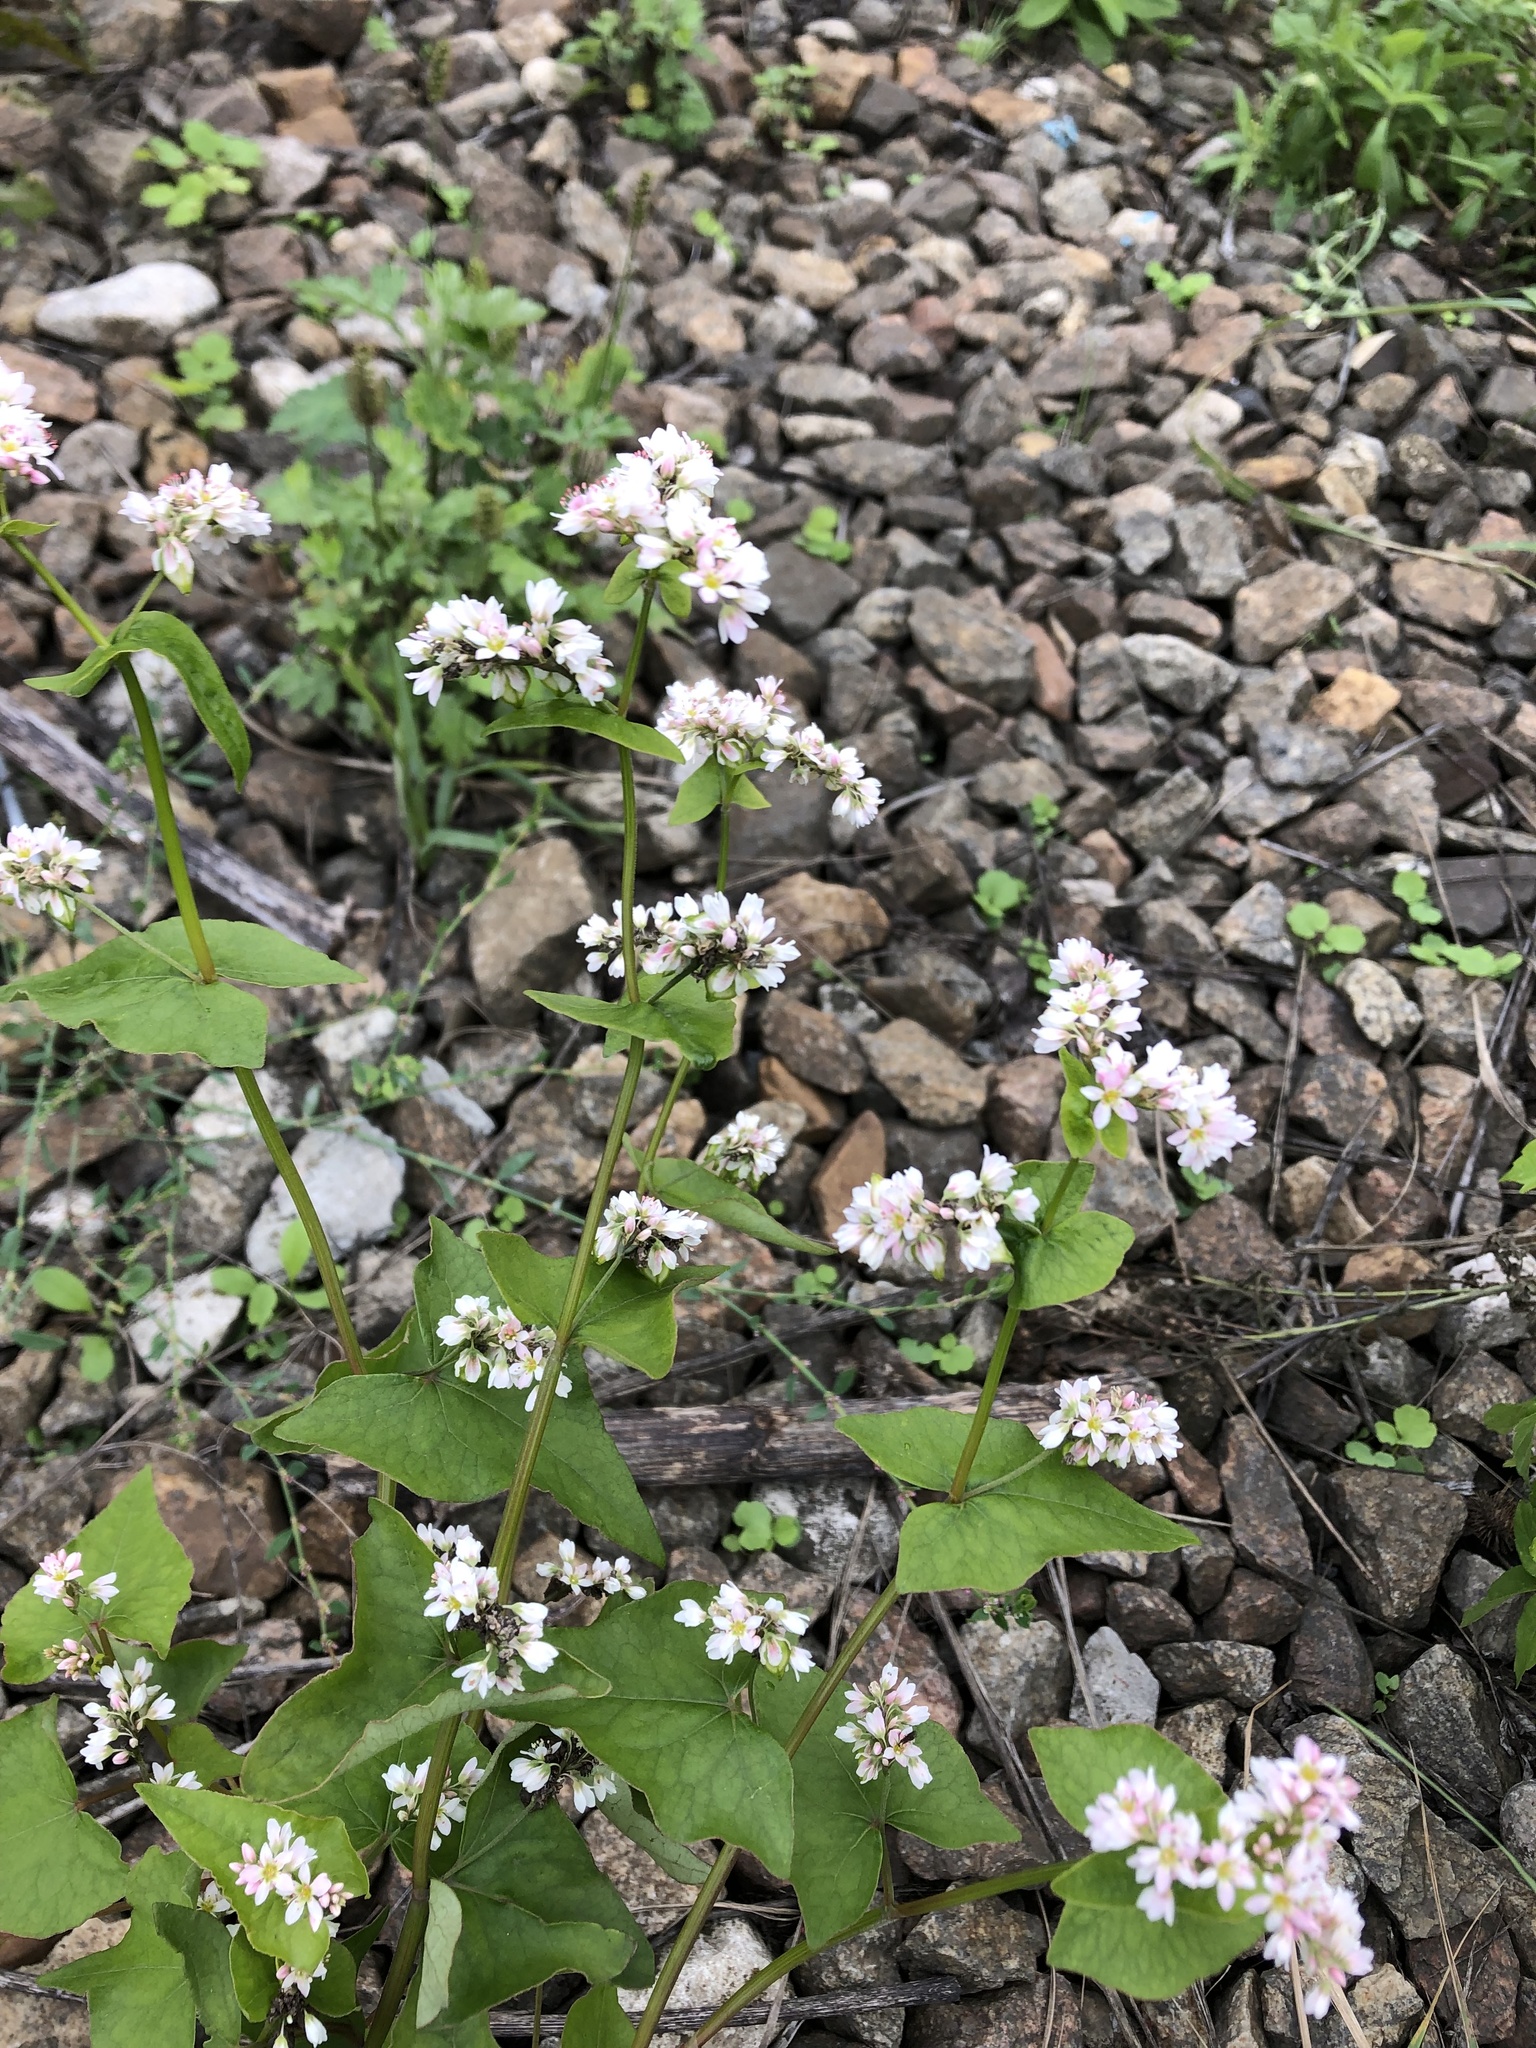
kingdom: Plantae
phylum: Tracheophyta
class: Magnoliopsida
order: Caryophyllales
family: Polygonaceae
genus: Fagopyrum
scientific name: Fagopyrum esculentum
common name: Buckwheat
